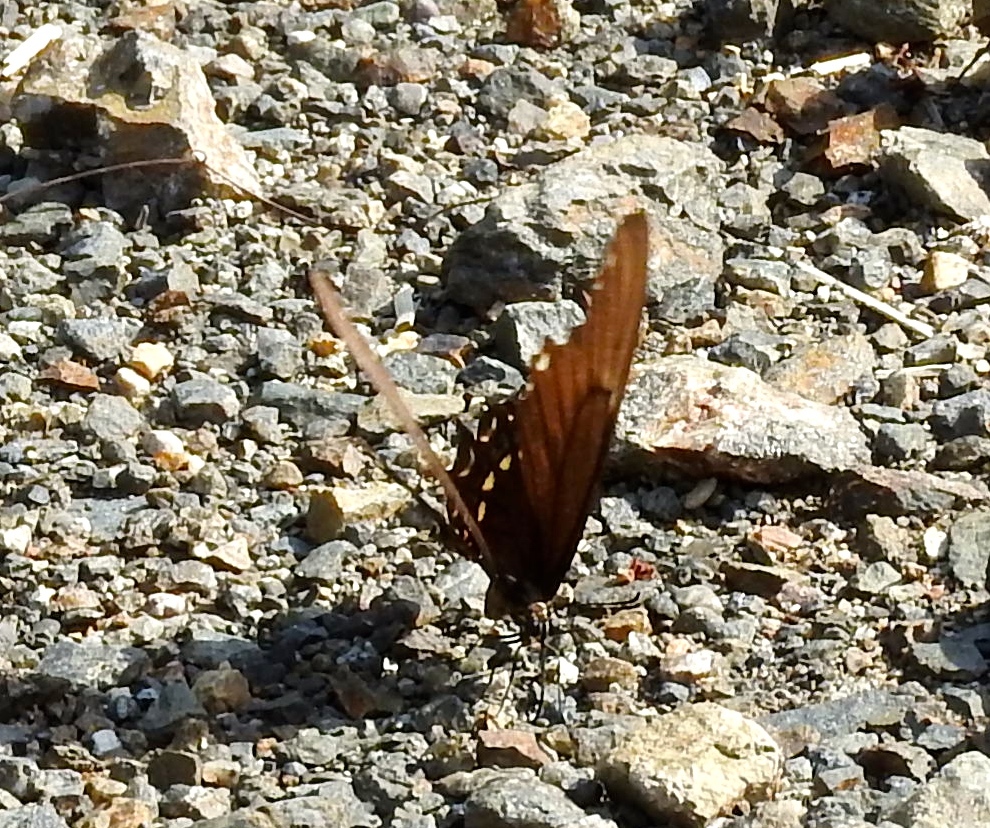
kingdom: Animalia
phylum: Arthropoda
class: Insecta
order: Lepidoptera
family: Papilionidae
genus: Papilio
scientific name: Papilio
